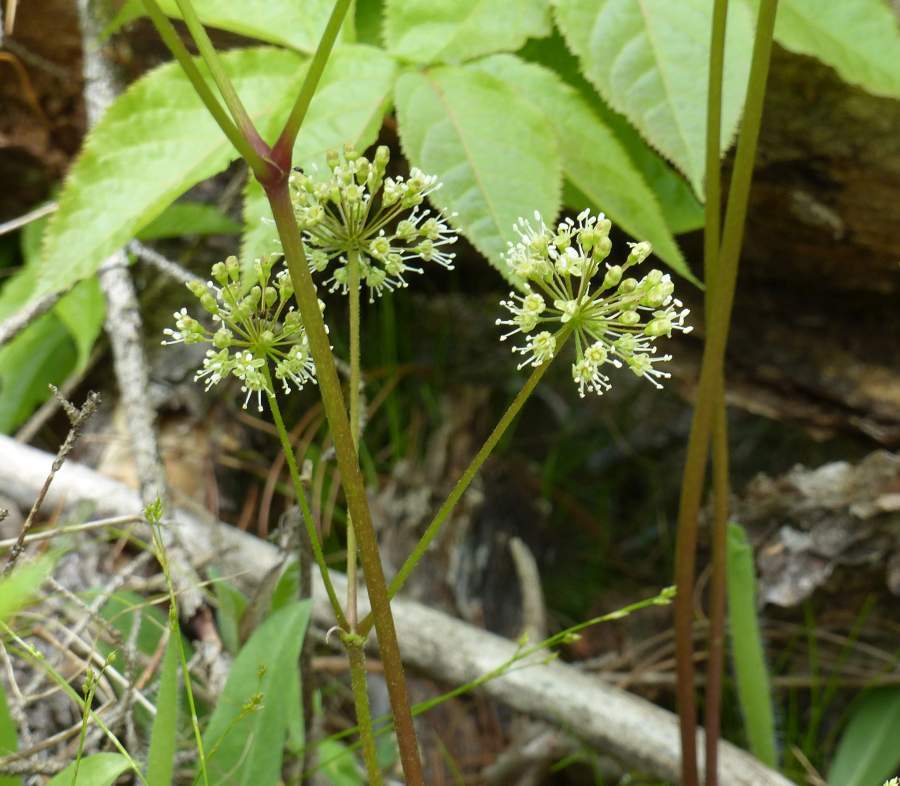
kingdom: Plantae
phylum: Tracheophyta
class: Magnoliopsida
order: Apiales
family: Araliaceae
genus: Aralia
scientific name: Aralia nudicaulis
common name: Wild sarsaparilla
